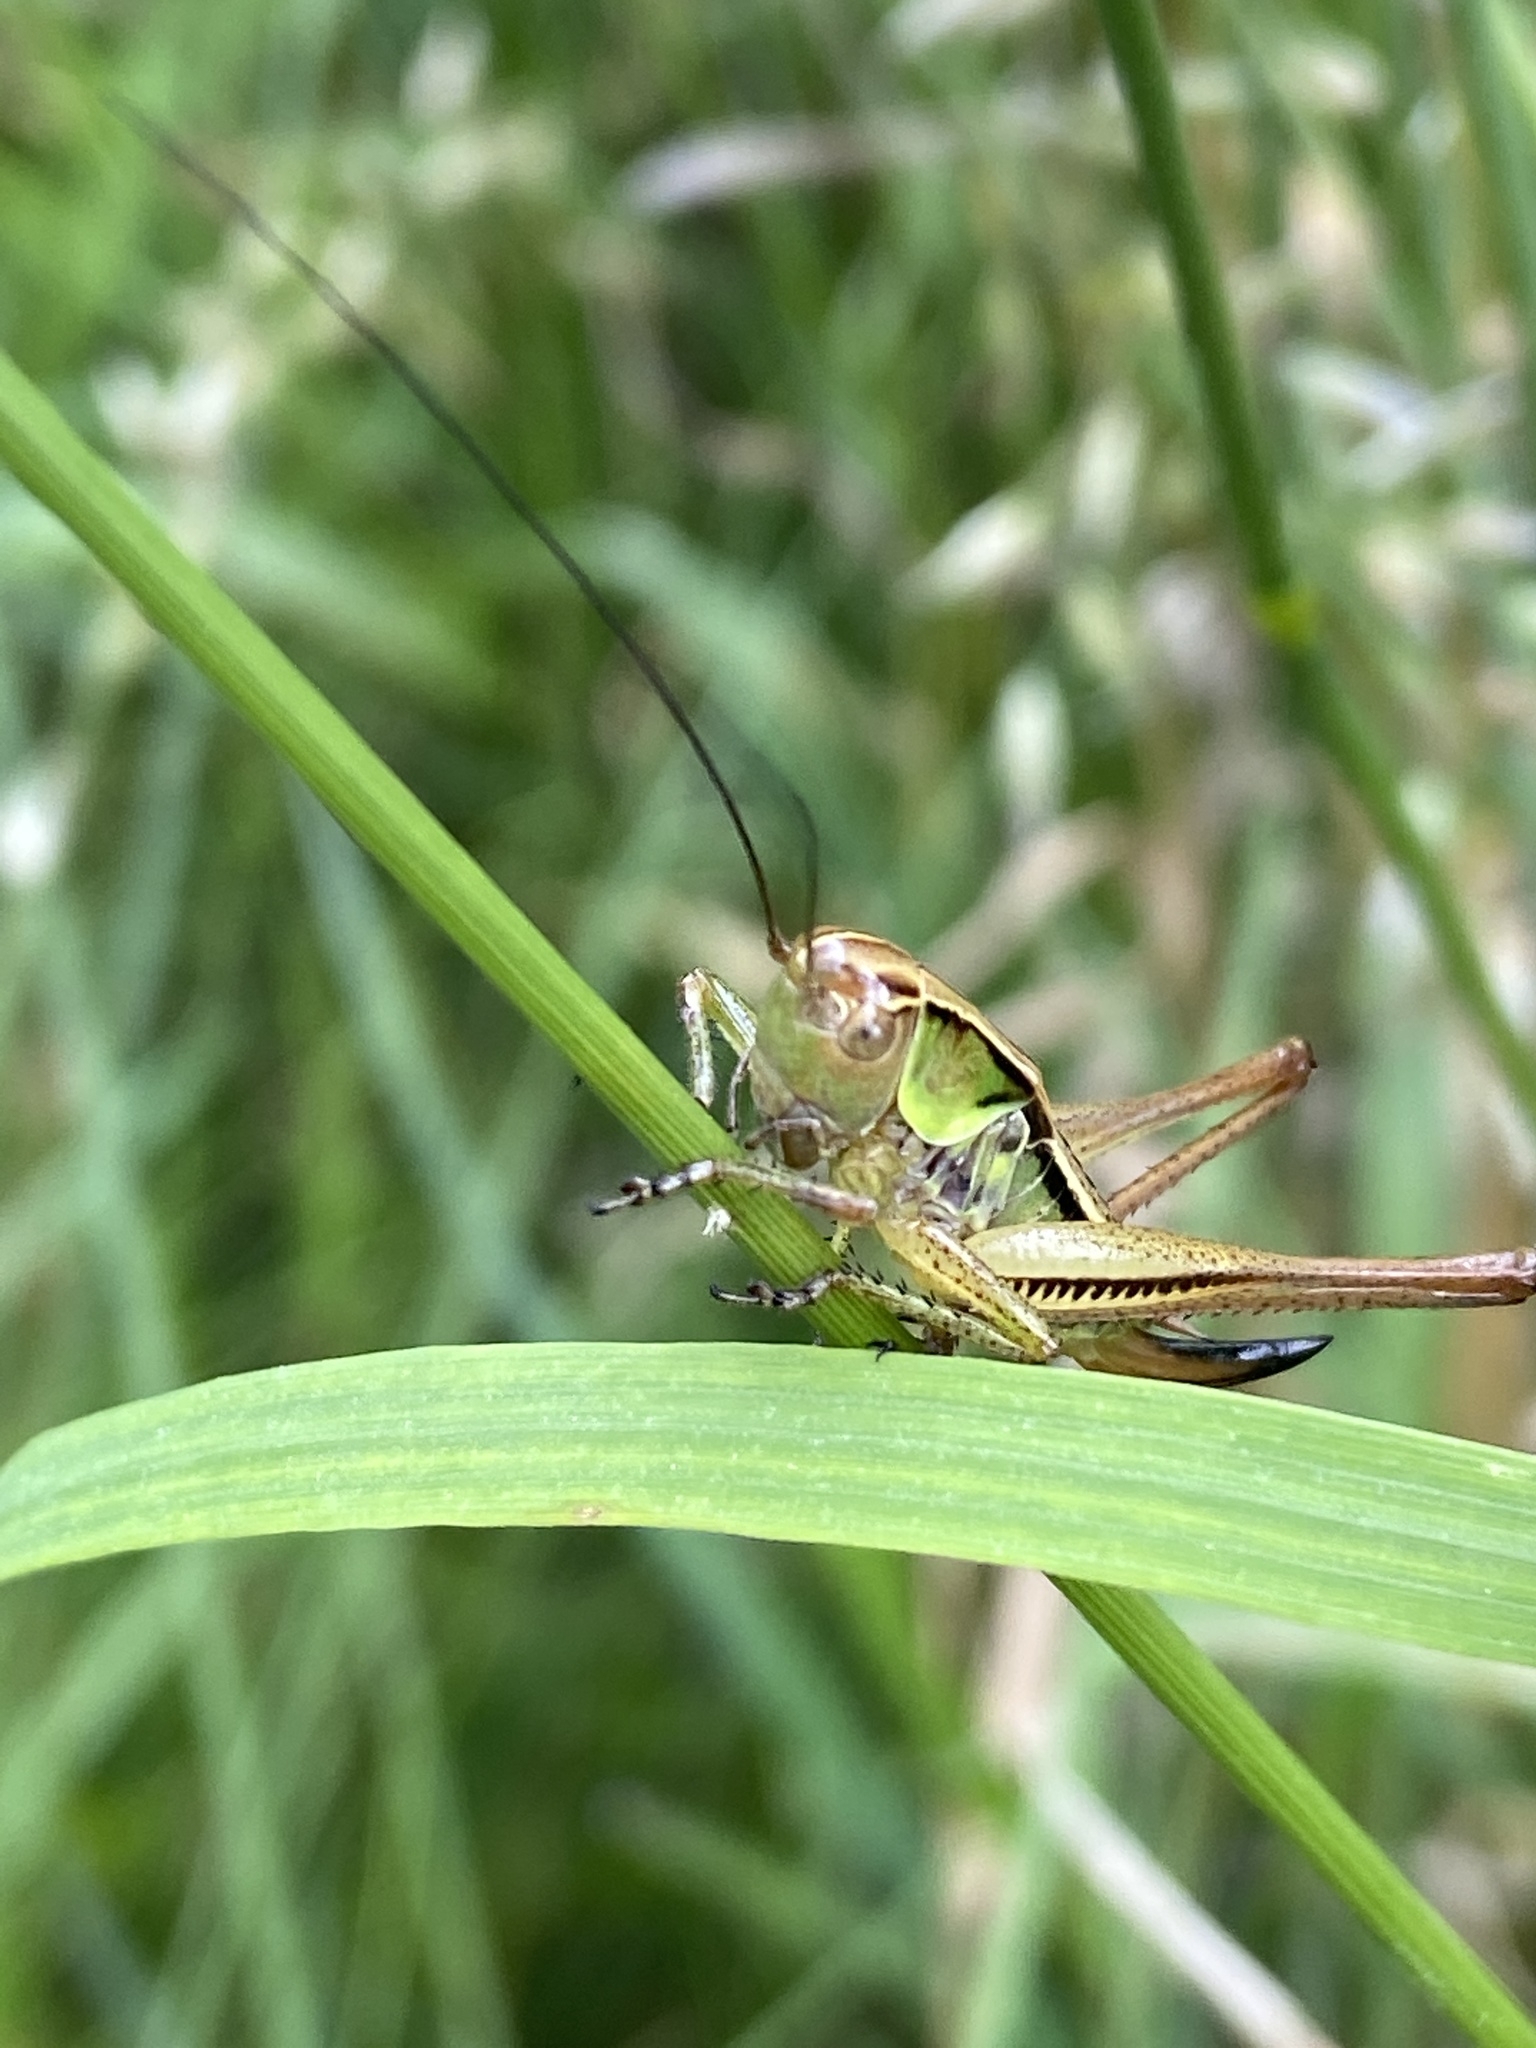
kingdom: Animalia
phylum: Arthropoda
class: Insecta
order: Orthoptera
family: Tettigoniidae
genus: Roeseliana
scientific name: Roeseliana roeselii
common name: Roesel's bush cricket
